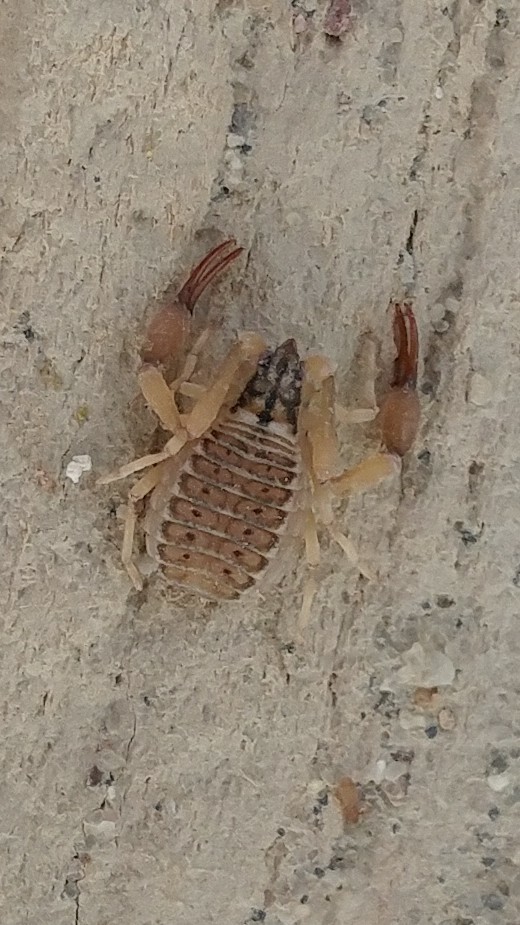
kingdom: Animalia
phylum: Arthropoda
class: Arachnida
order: Pseudoscorpiones
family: Garypidae
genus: Anchigarypus
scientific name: Anchigarypus californicus
